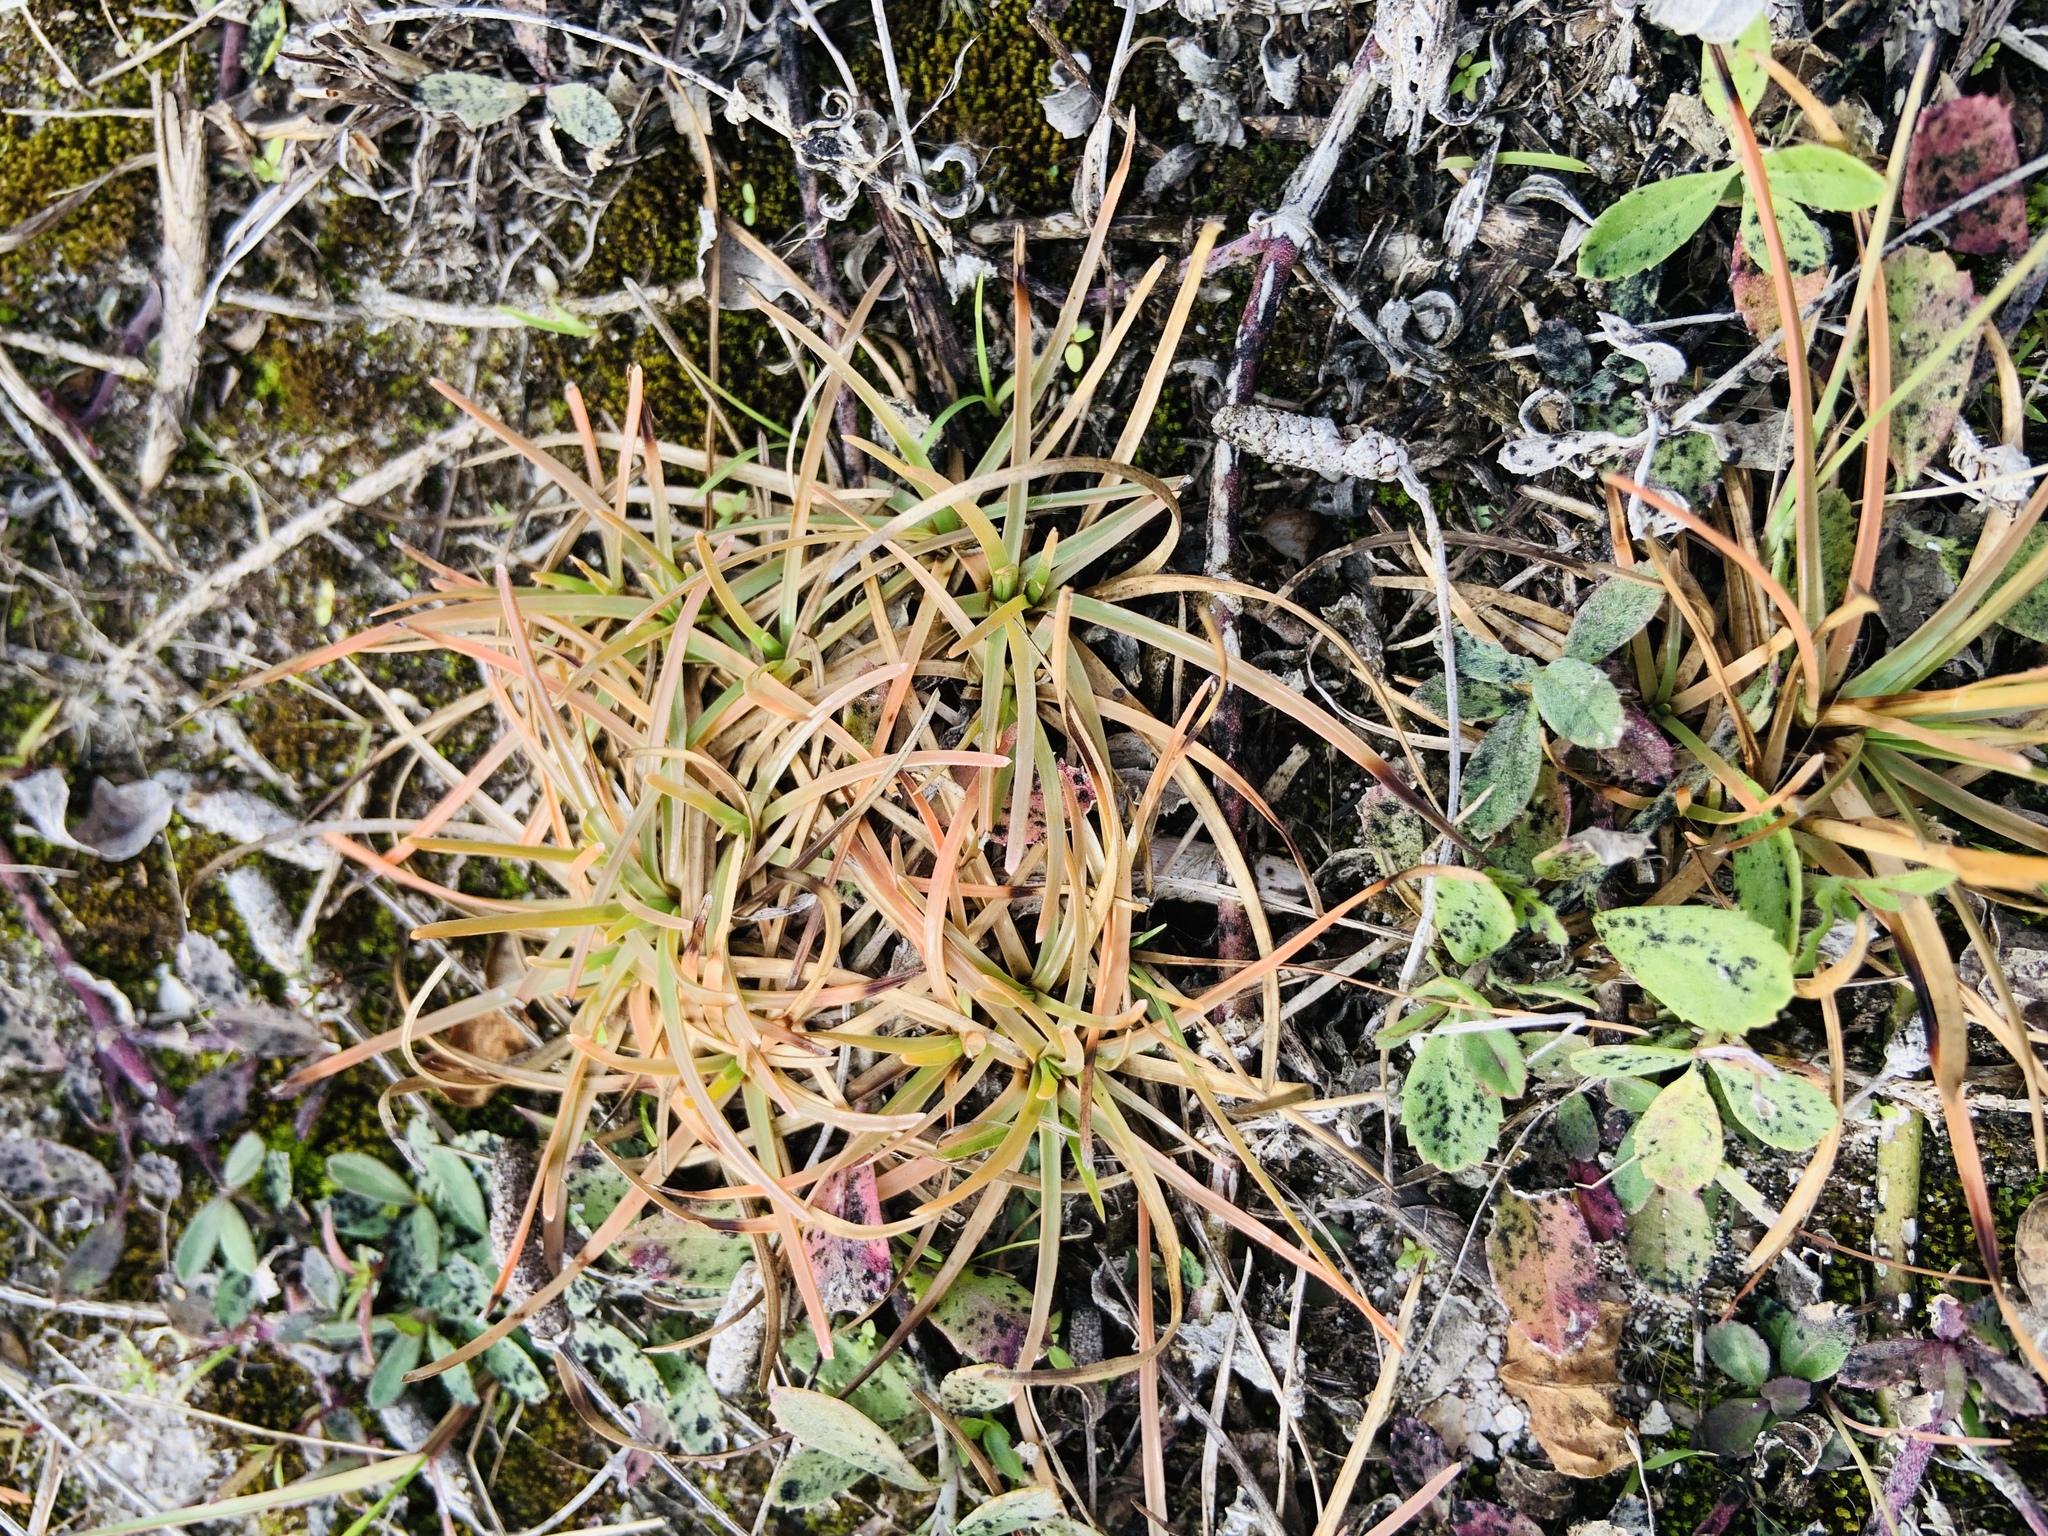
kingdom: Plantae
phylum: Tracheophyta
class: Liliopsida
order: Poales
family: Cyperaceae
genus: Fimbristylis
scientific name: Fimbristylis cymosa
